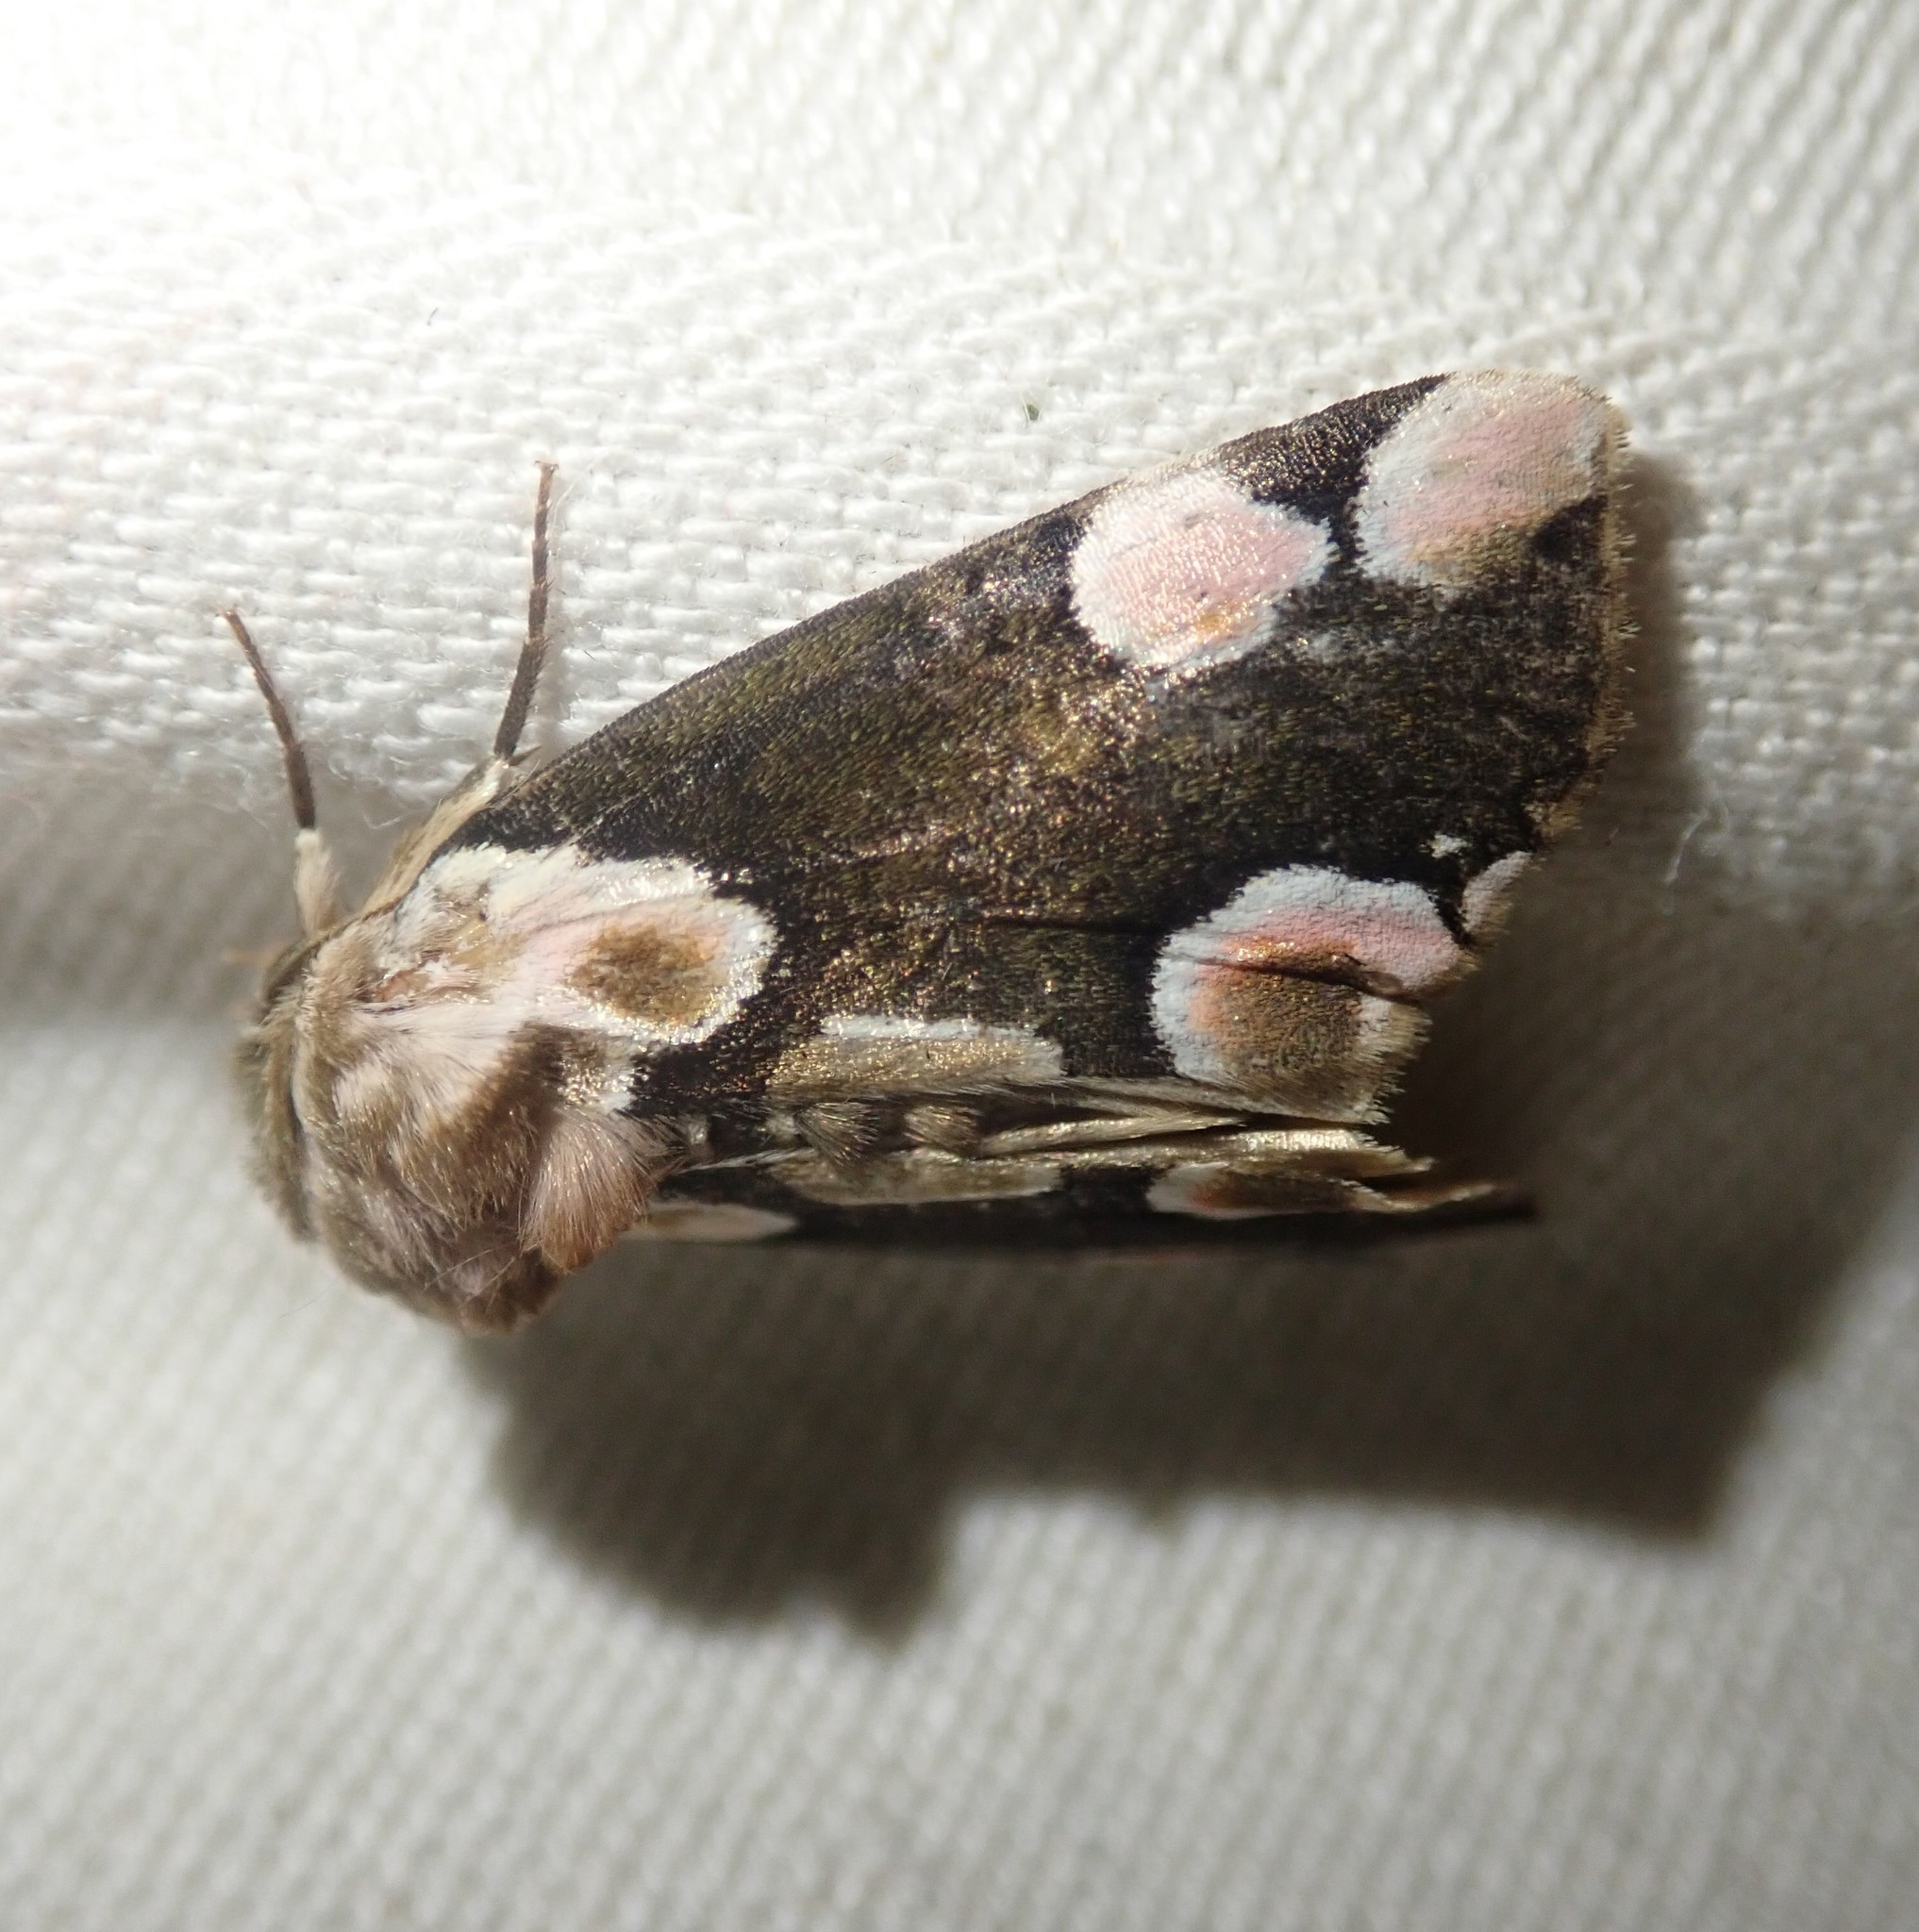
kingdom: Animalia
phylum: Arthropoda
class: Insecta
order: Lepidoptera
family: Drepanidae
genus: Thyatira
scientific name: Thyatira batis
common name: Peach blossom
